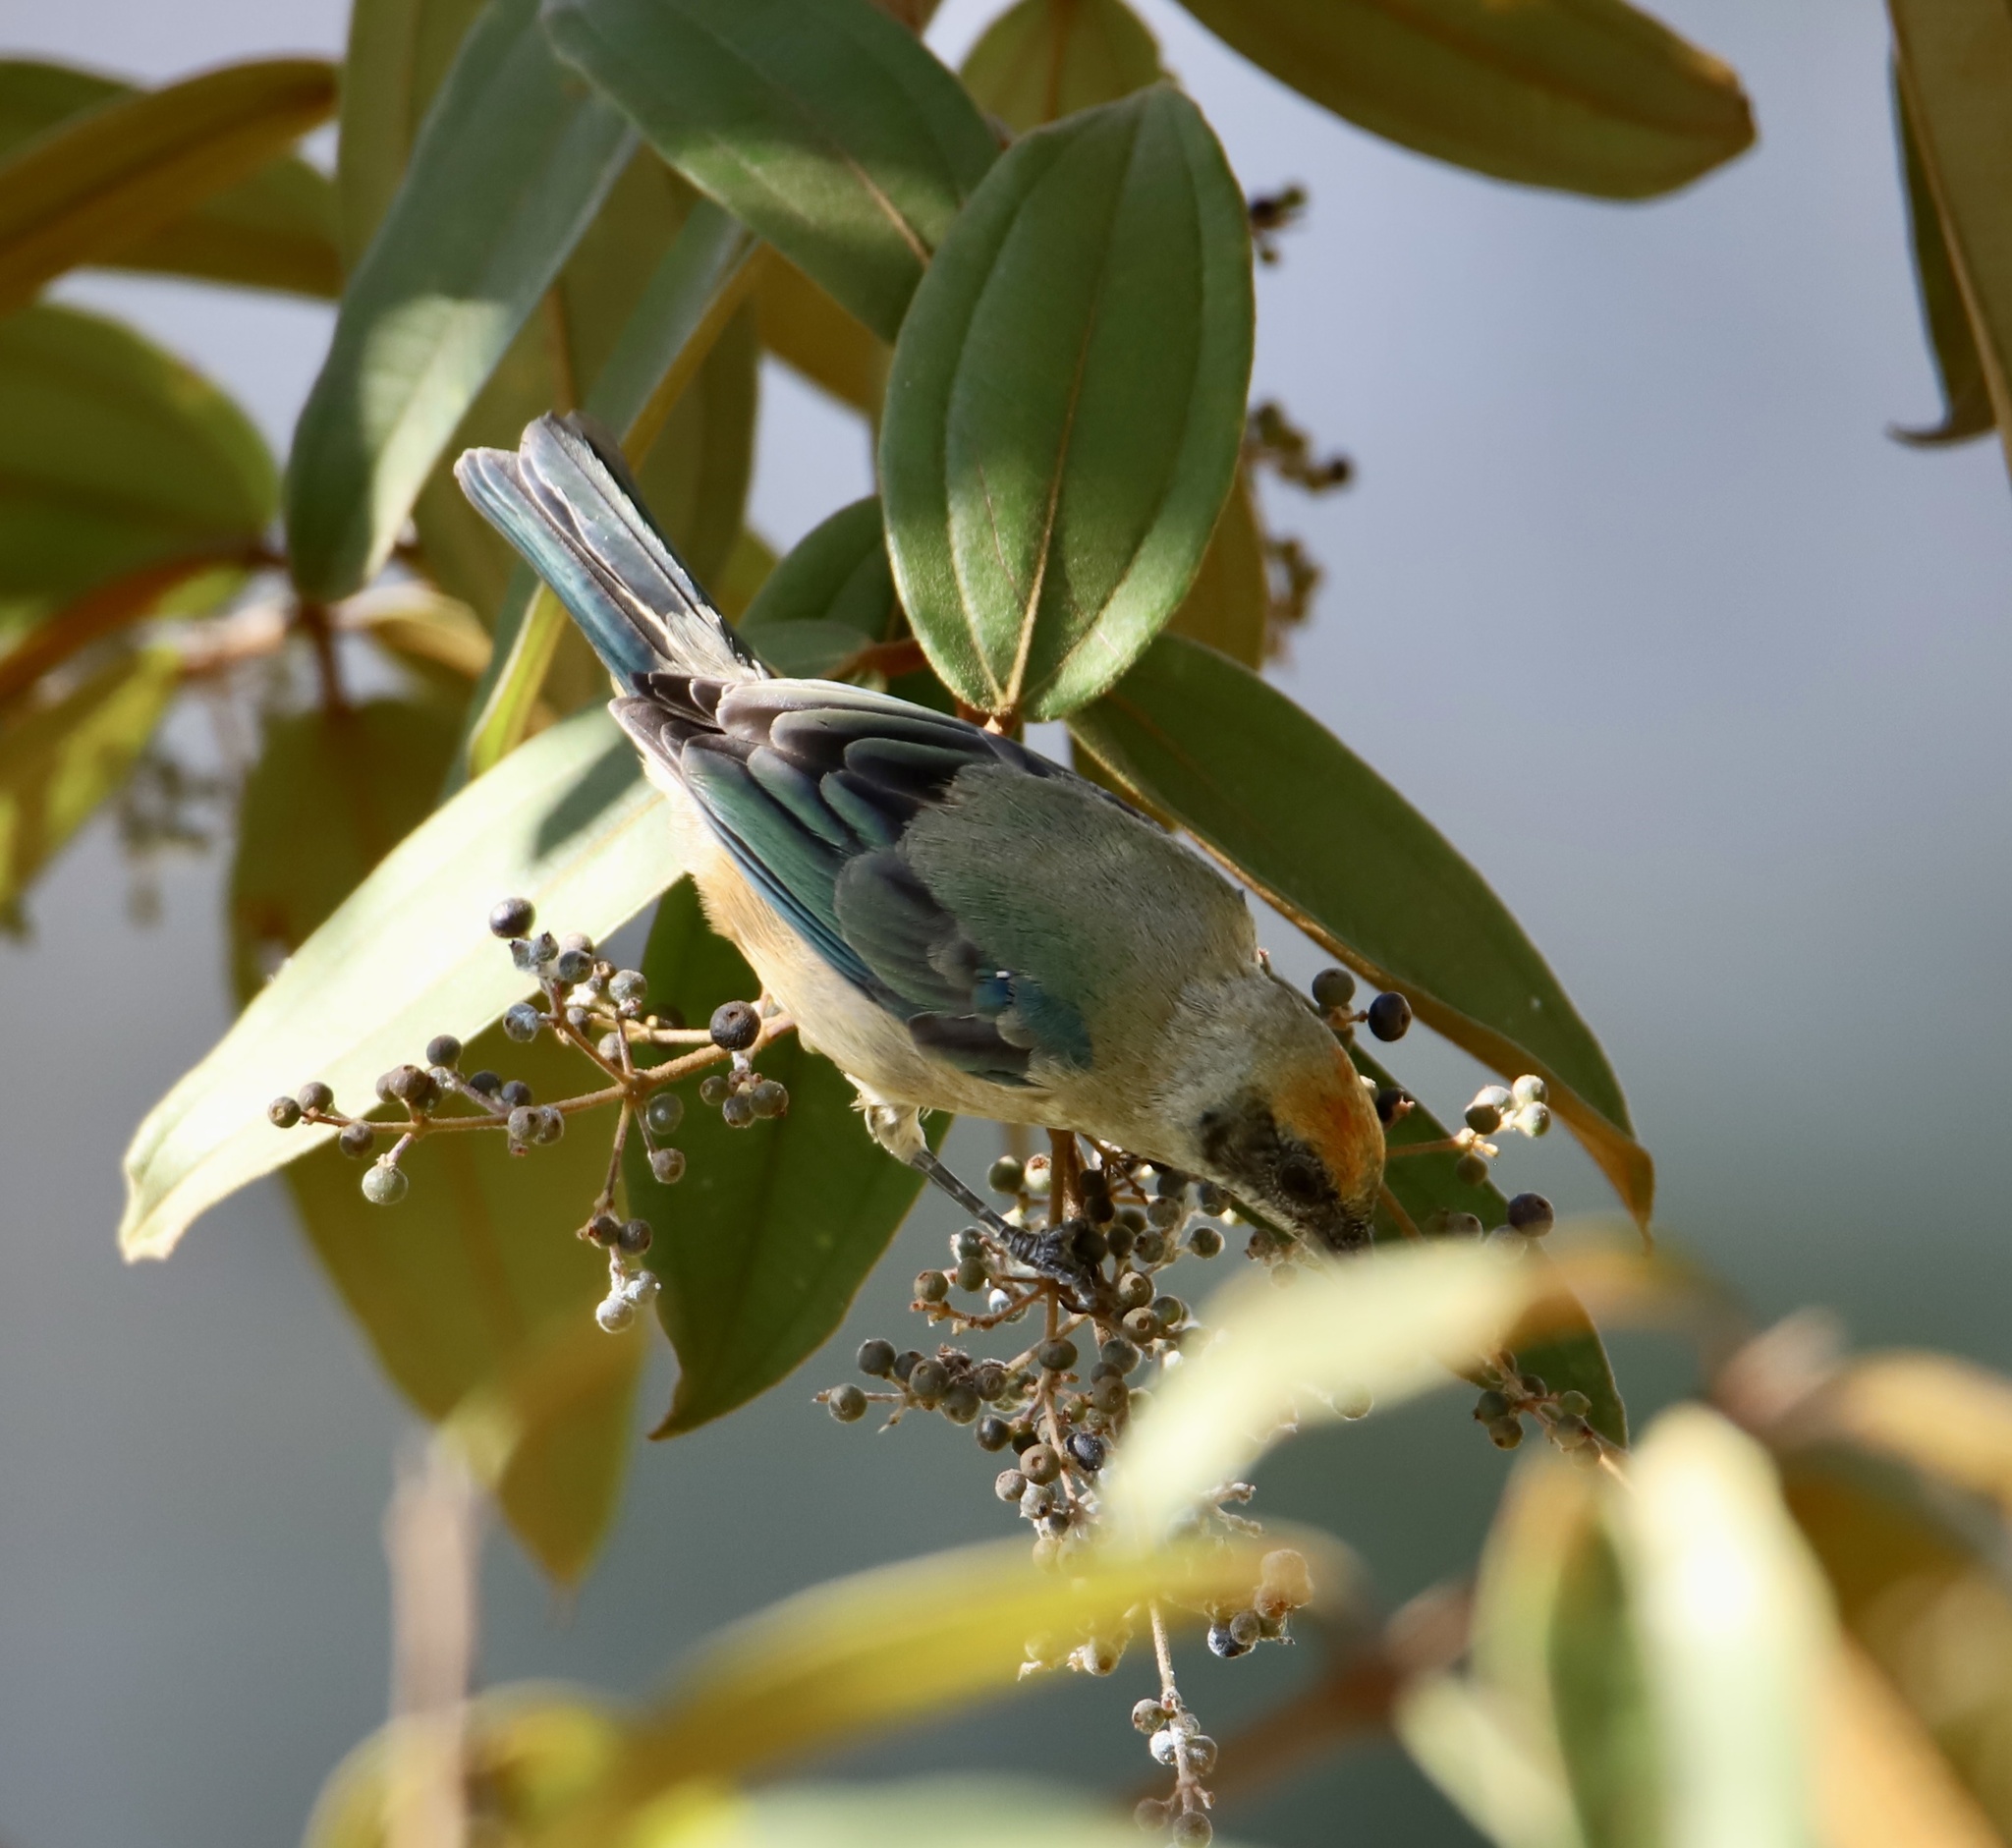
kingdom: Animalia
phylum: Chordata
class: Aves
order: Passeriformes
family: Thraupidae
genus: Stilpnia
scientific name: Stilpnia cayana
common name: Burnished-buff tanager
